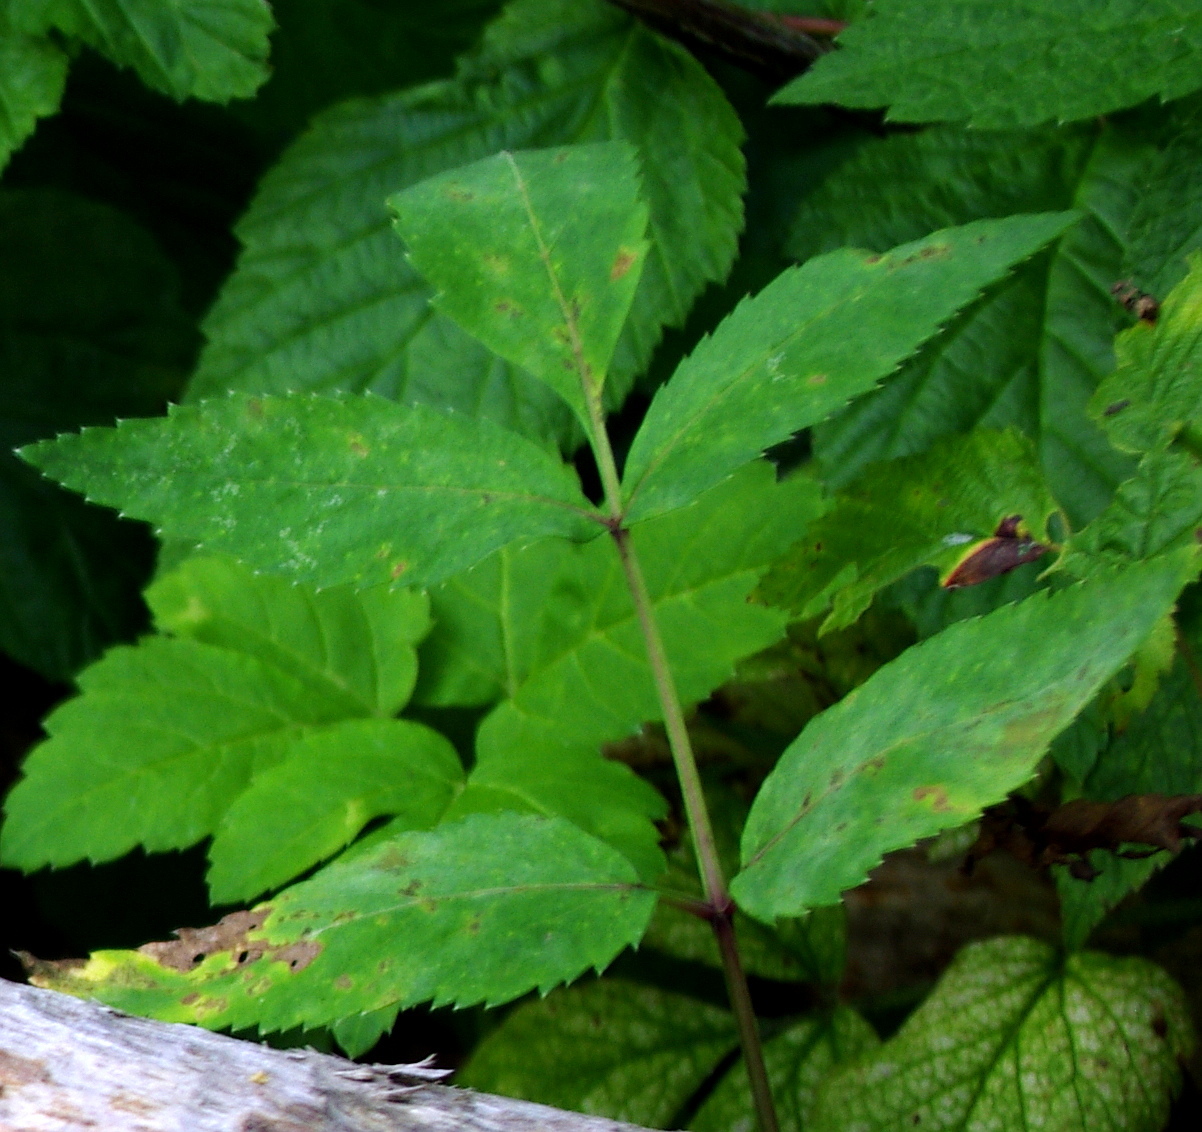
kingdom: Plantae
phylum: Tracheophyta
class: Magnoliopsida
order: Apiales
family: Apiaceae
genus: Angelica
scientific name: Angelica sylvestris
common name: Wild angelica
